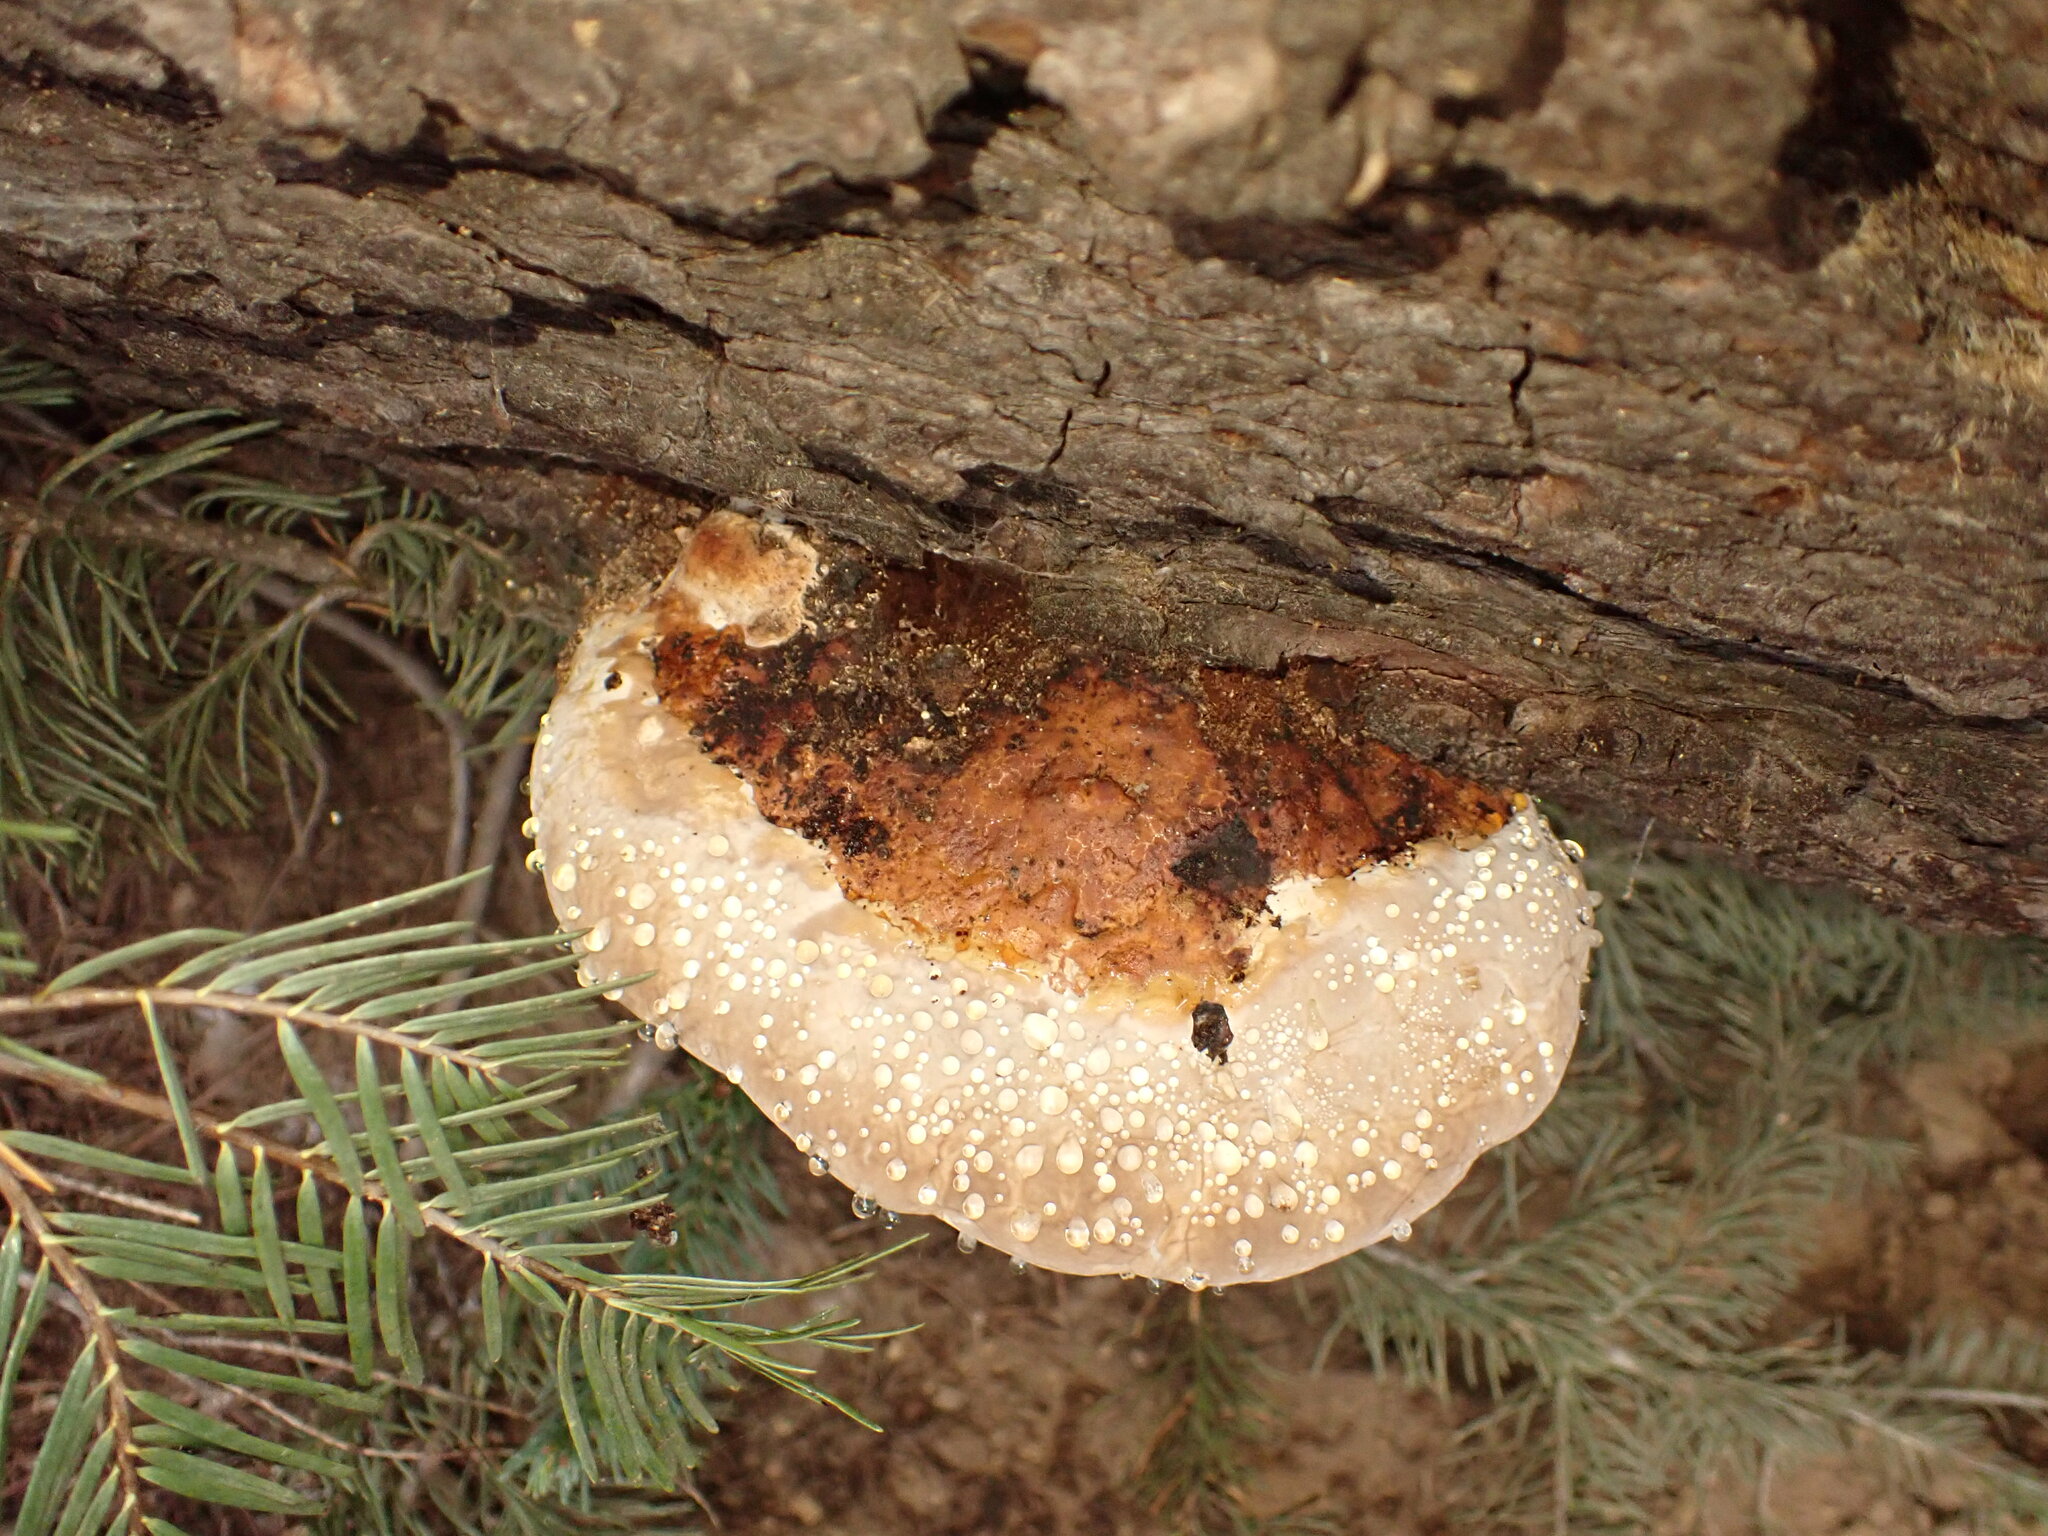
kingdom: Fungi
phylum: Basidiomycota
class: Agaricomycetes
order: Polyporales
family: Fomitopsidaceae
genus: Fomitopsis
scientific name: Fomitopsis mounceae
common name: Northern red belt
